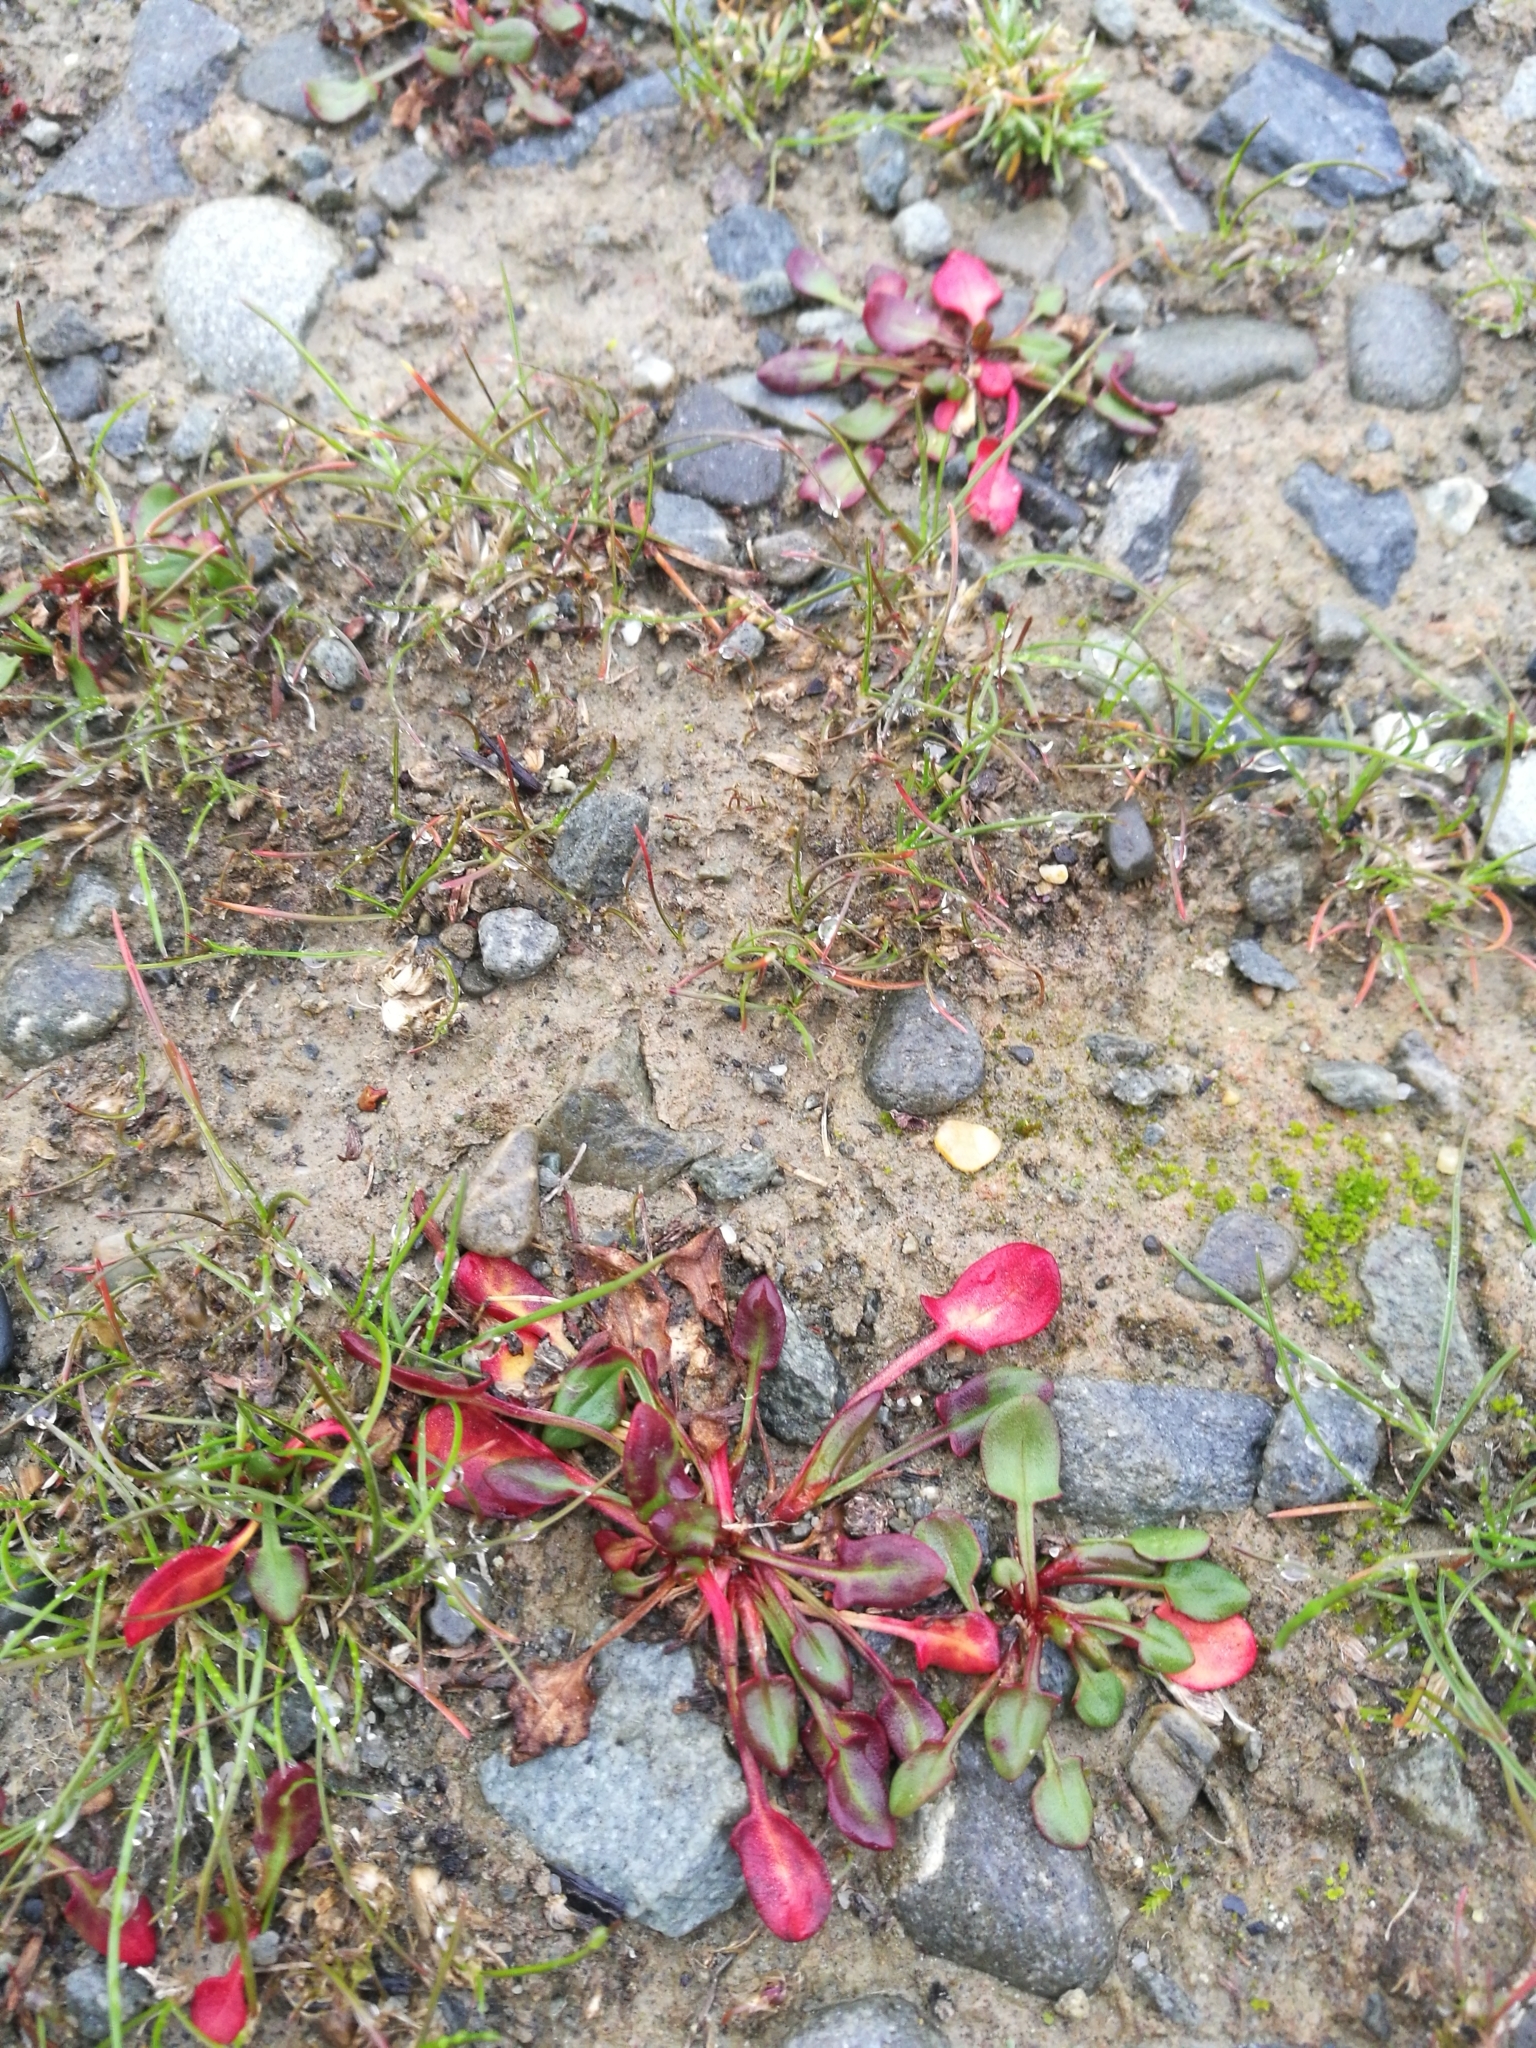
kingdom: Plantae
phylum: Tracheophyta
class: Magnoliopsida
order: Caryophyllales
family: Polygonaceae
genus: Rumex
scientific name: Rumex acetosella
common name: Common sheep sorrel
